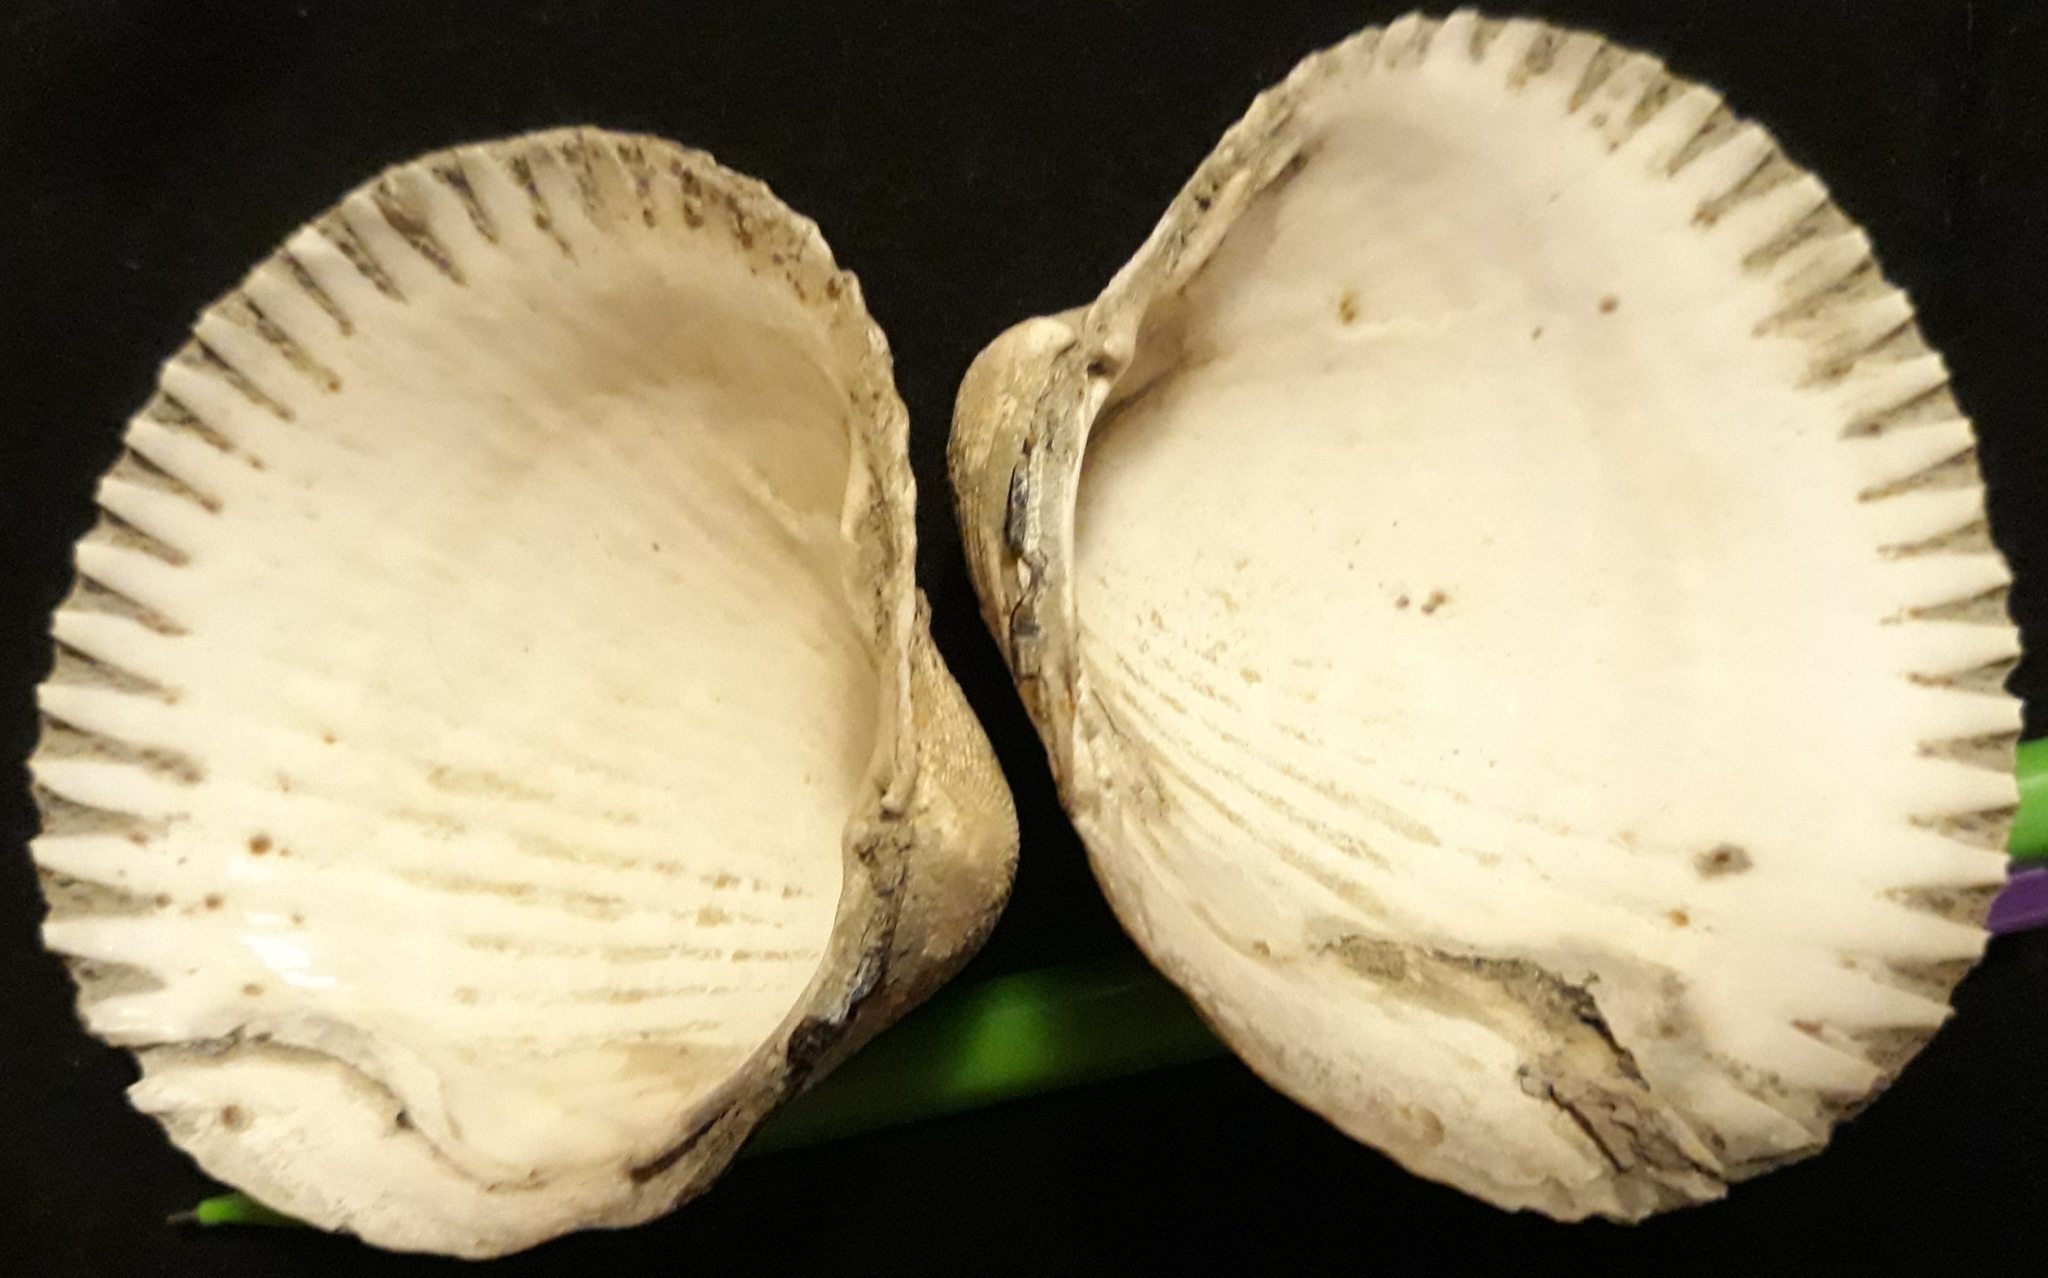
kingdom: Animalia
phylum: Mollusca
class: Bivalvia
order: Cardiida
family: Cardiidae
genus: Clinocardium
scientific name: Clinocardium nuttallii
